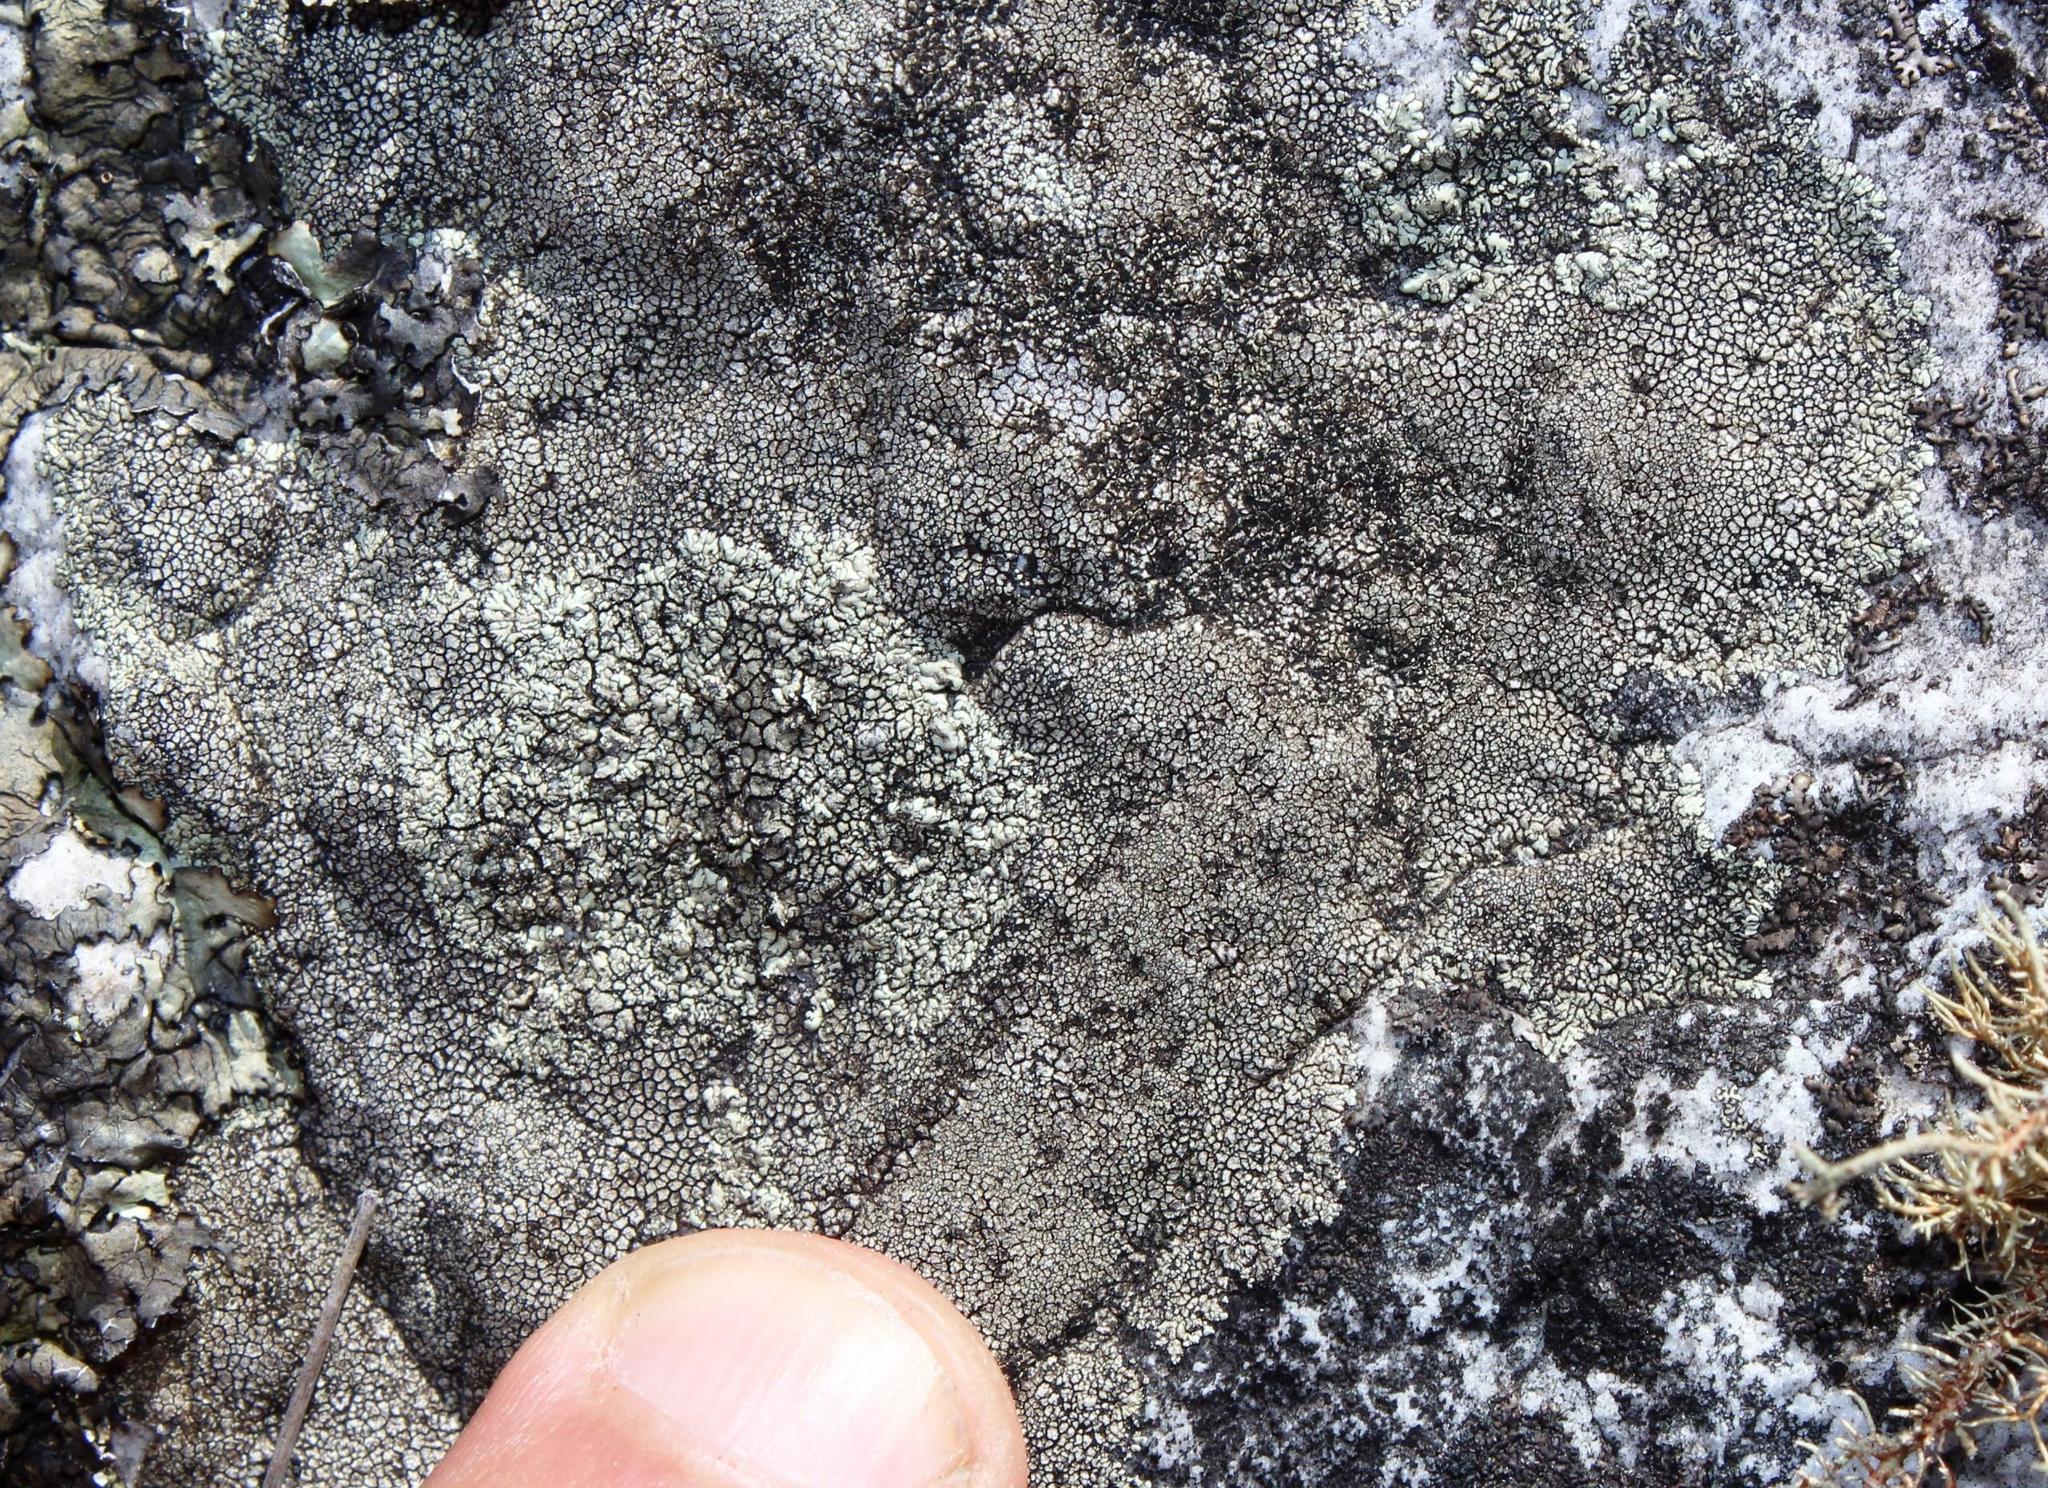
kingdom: Fungi
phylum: Ascomycota
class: Lecanoromycetes
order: Caliciales
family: Caliciaceae
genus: Dimelaena
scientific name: Dimelaena oreina
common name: Golden moonglow lichen
